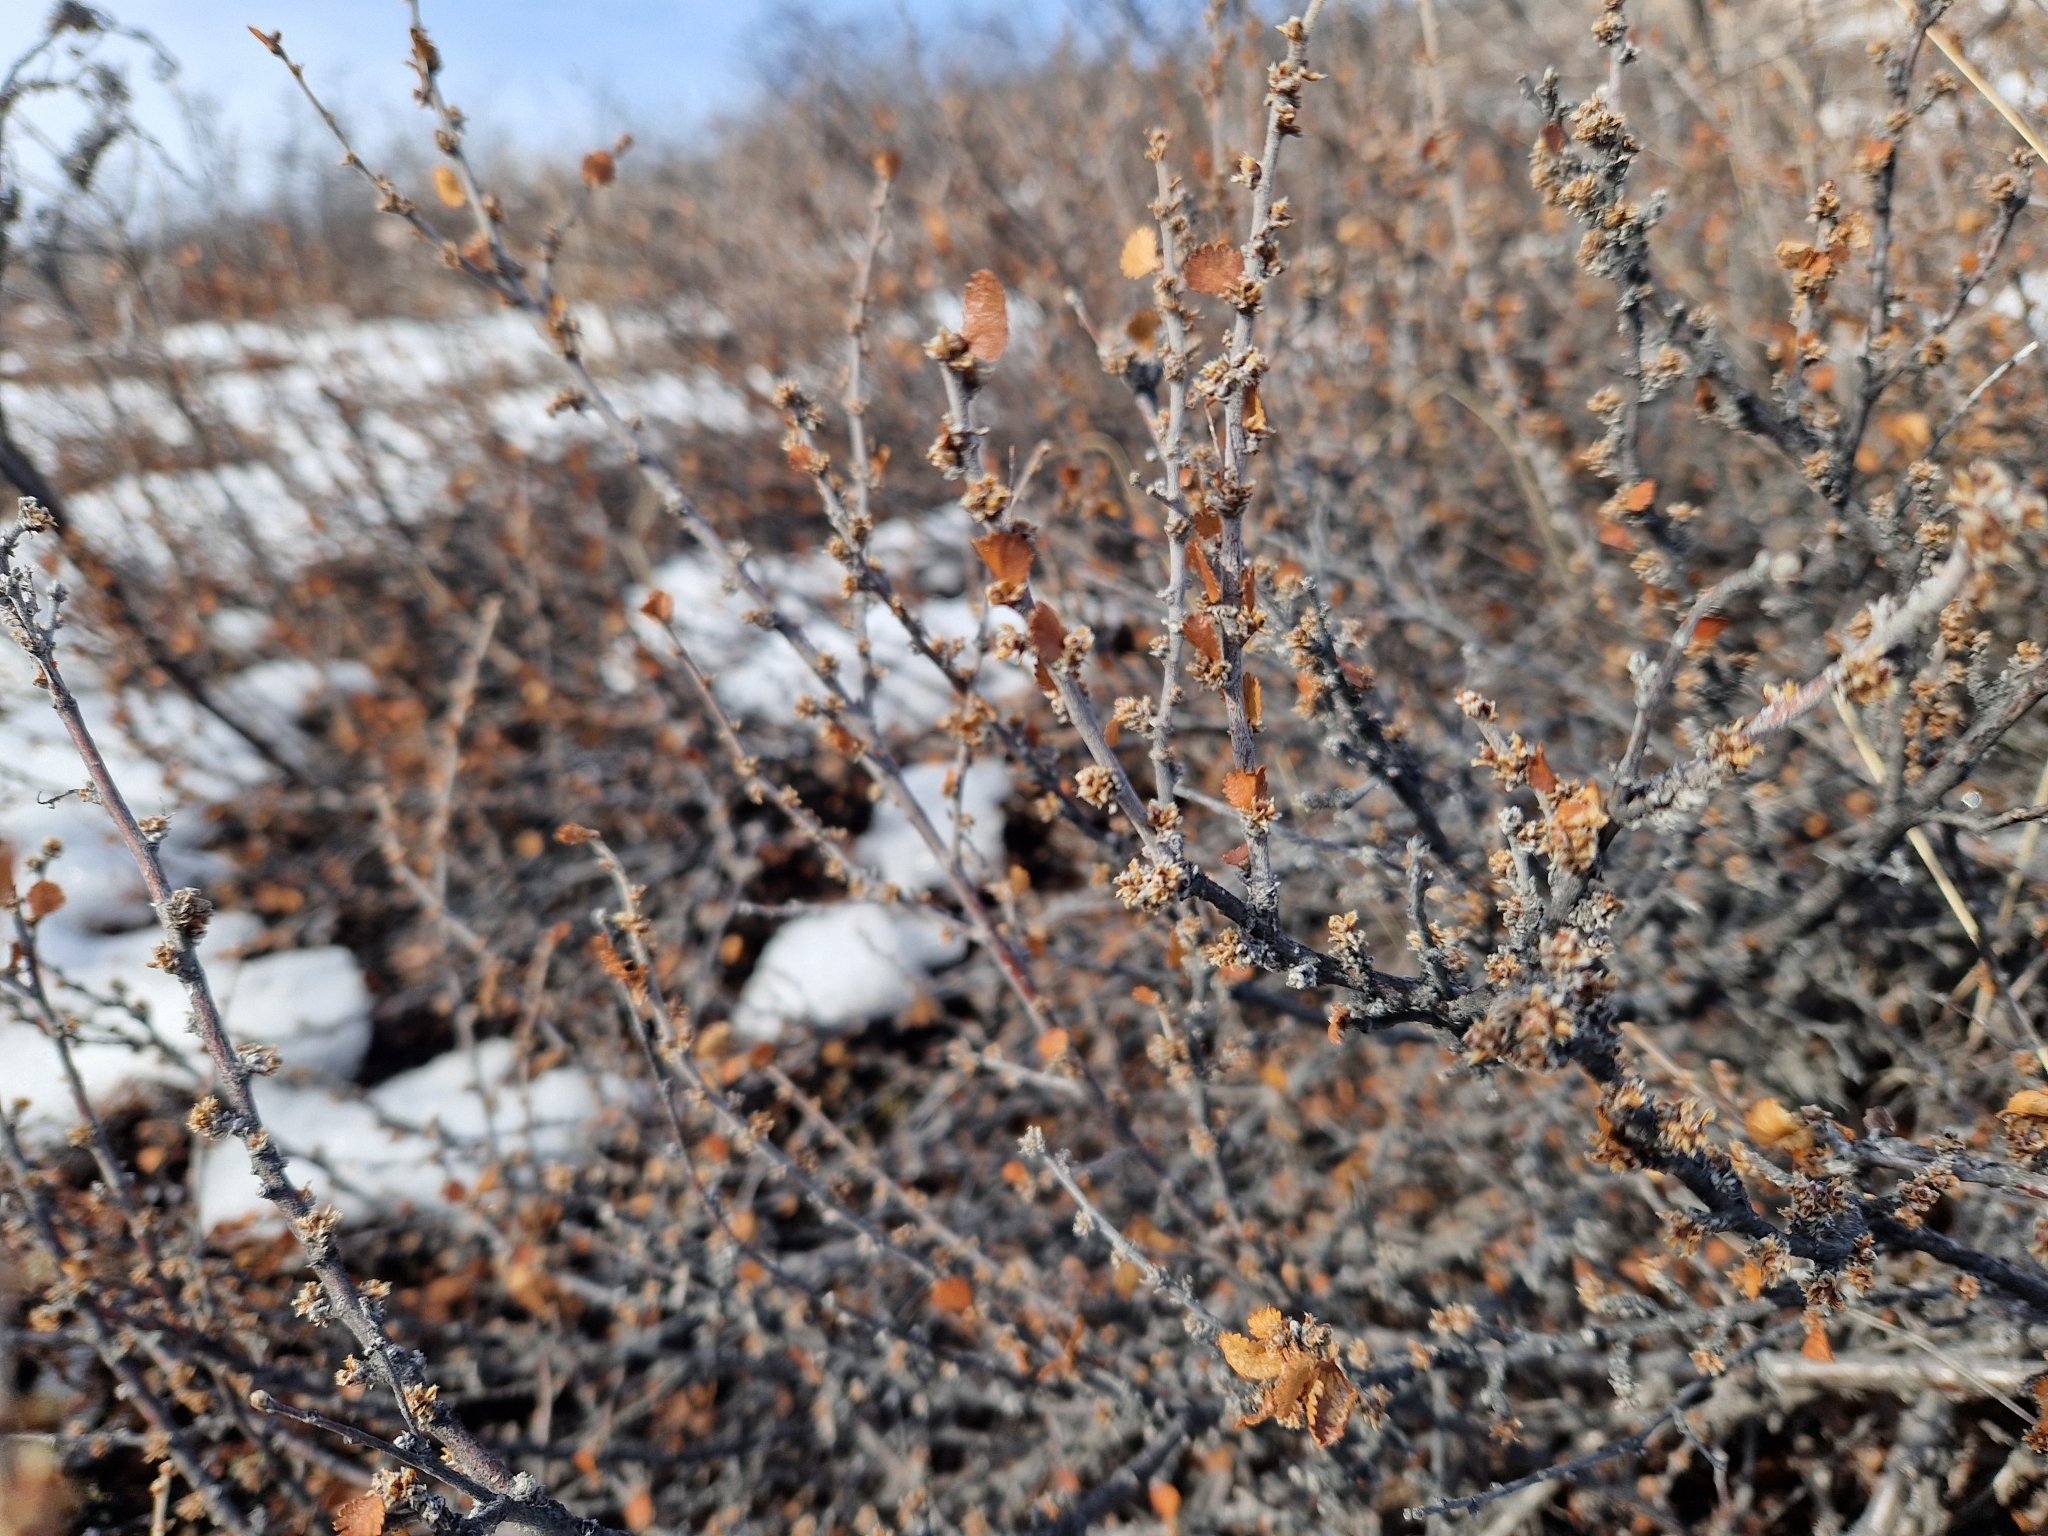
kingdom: Plantae
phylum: Tracheophyta
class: Magnoliopsida
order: Fagales
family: Betulaceae
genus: Betula
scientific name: Betula nana
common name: Arctic dwarf birch
